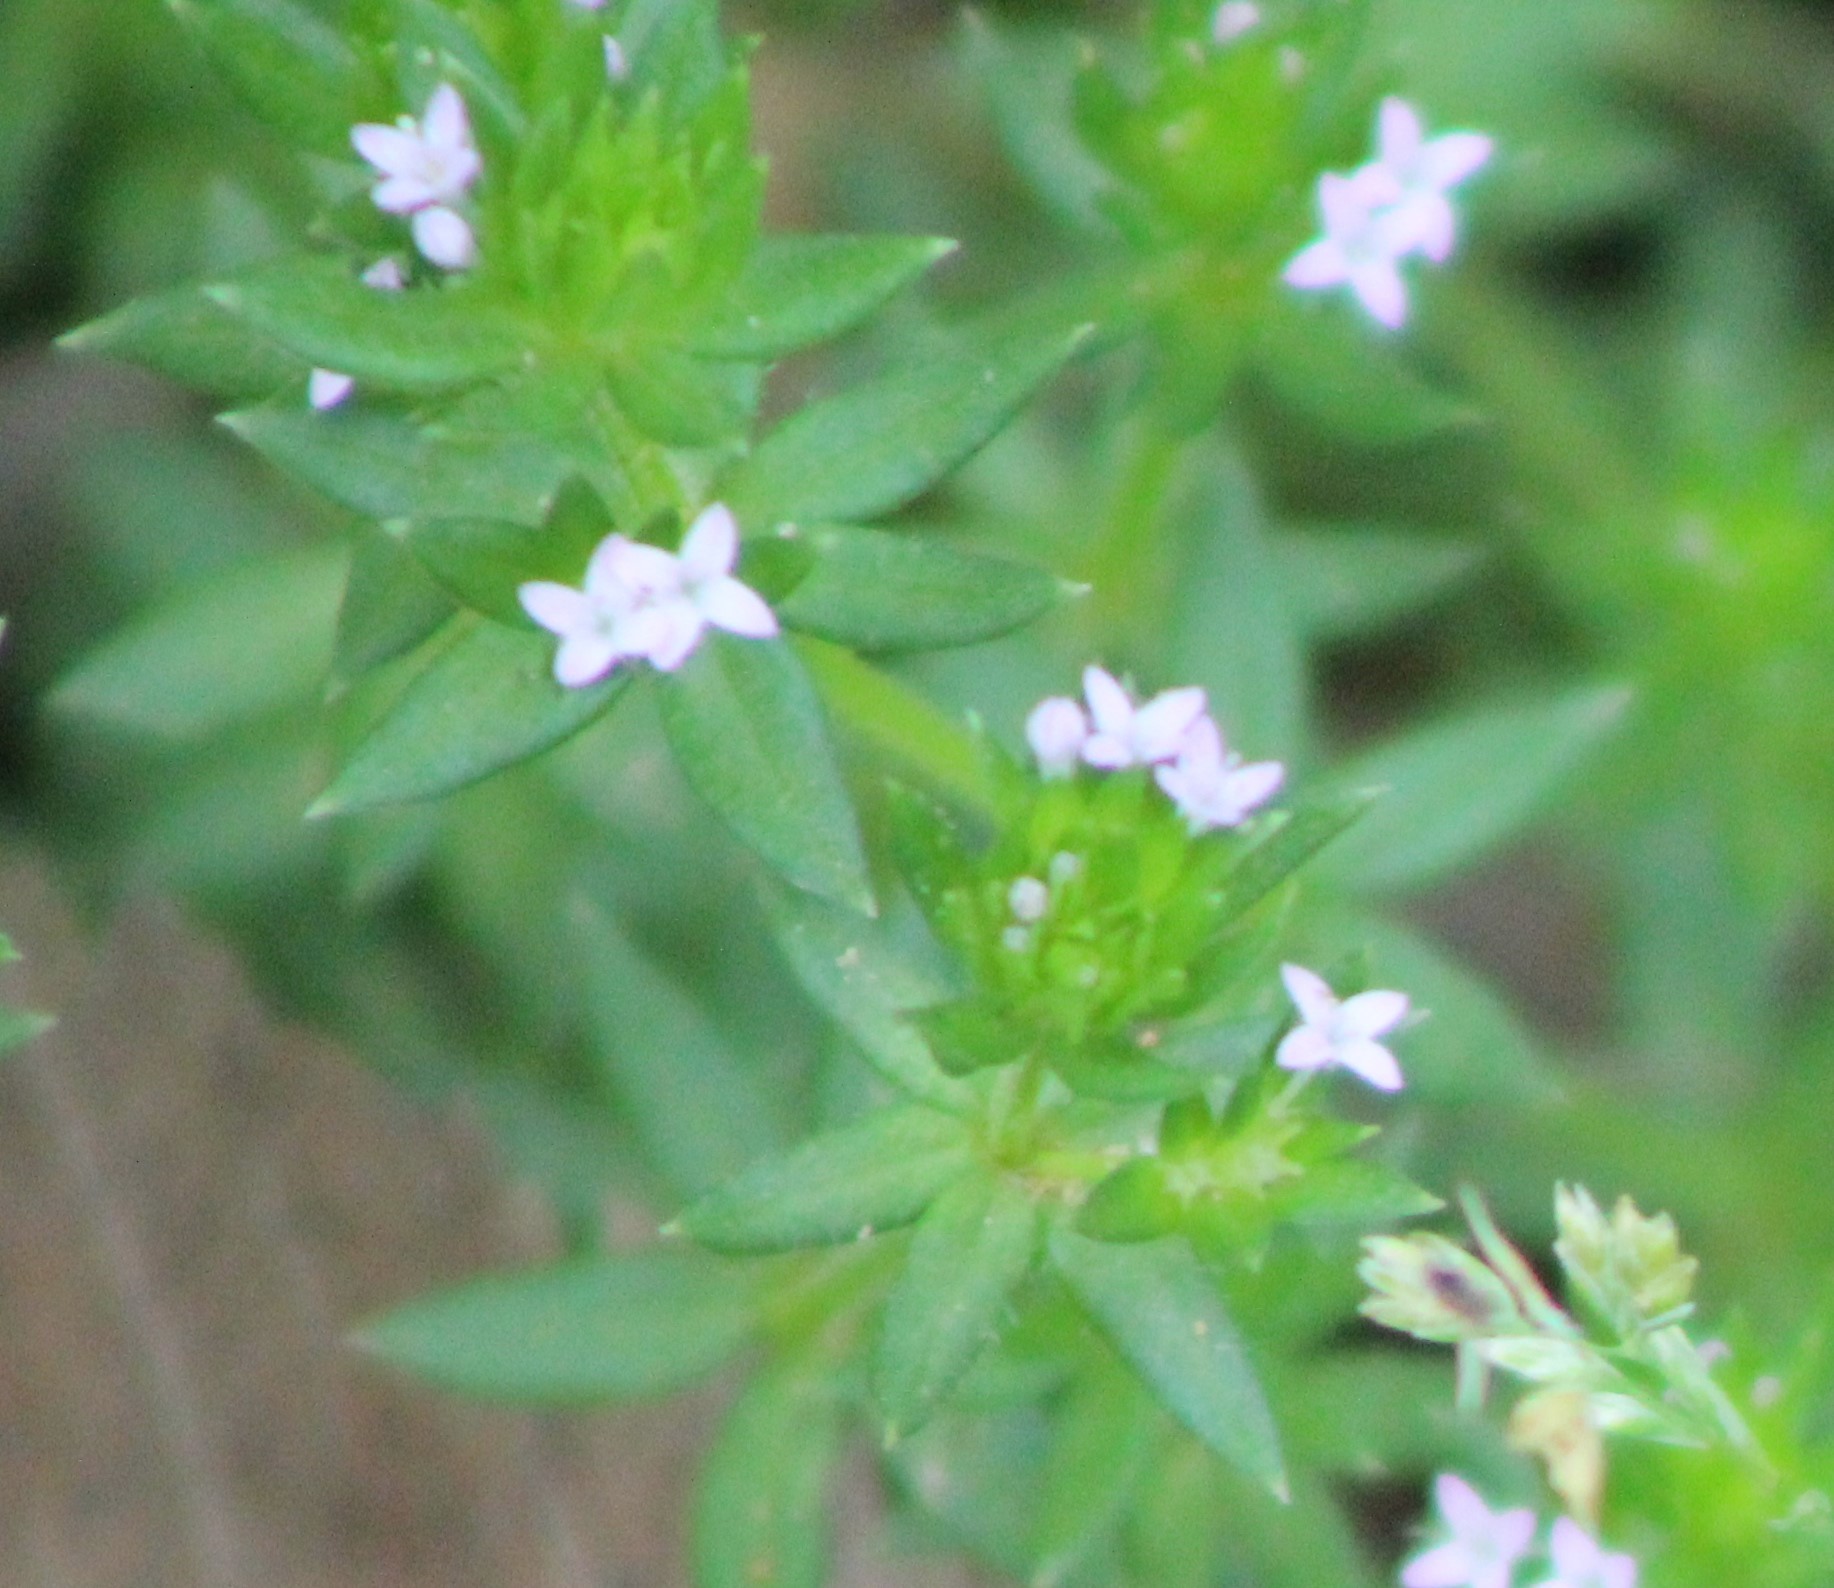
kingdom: Plantae
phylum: Tracheophyta
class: Magnoliopsida
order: Gentianales
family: Rubiaceae
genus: Sherardia
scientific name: Sherardia arvensis
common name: Field madder
